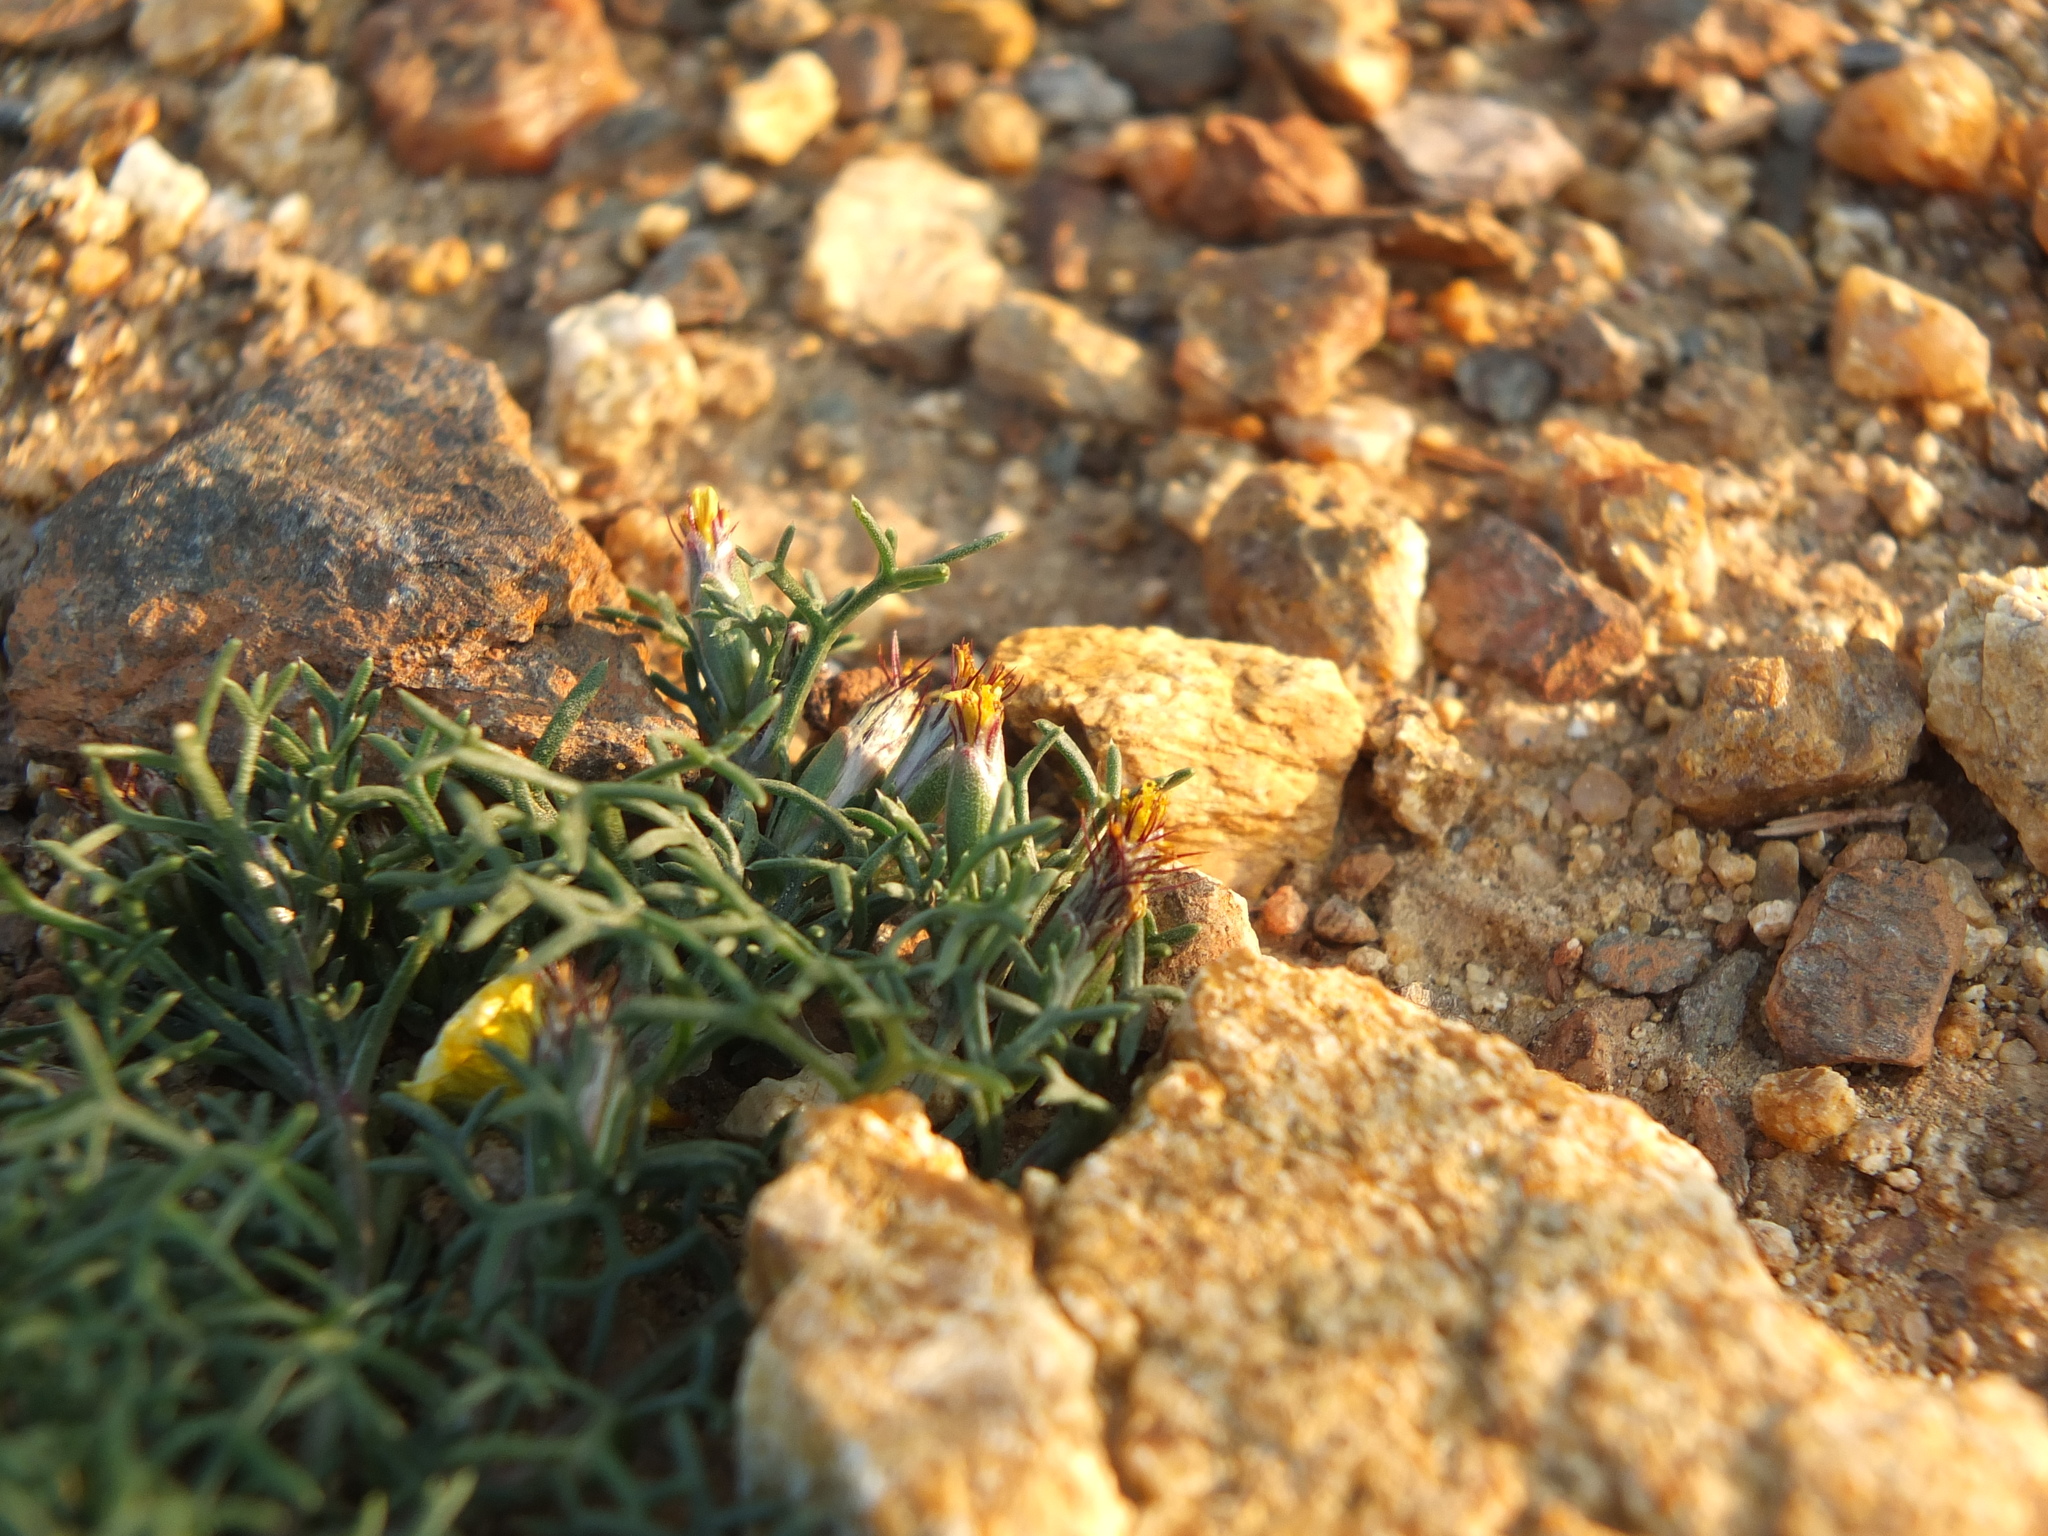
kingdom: Plantae
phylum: Tracheophyta
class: Magnoliopsida
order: Asterales
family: Asteraceae
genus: Glossocardia
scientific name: Glossocardia bosvallia
